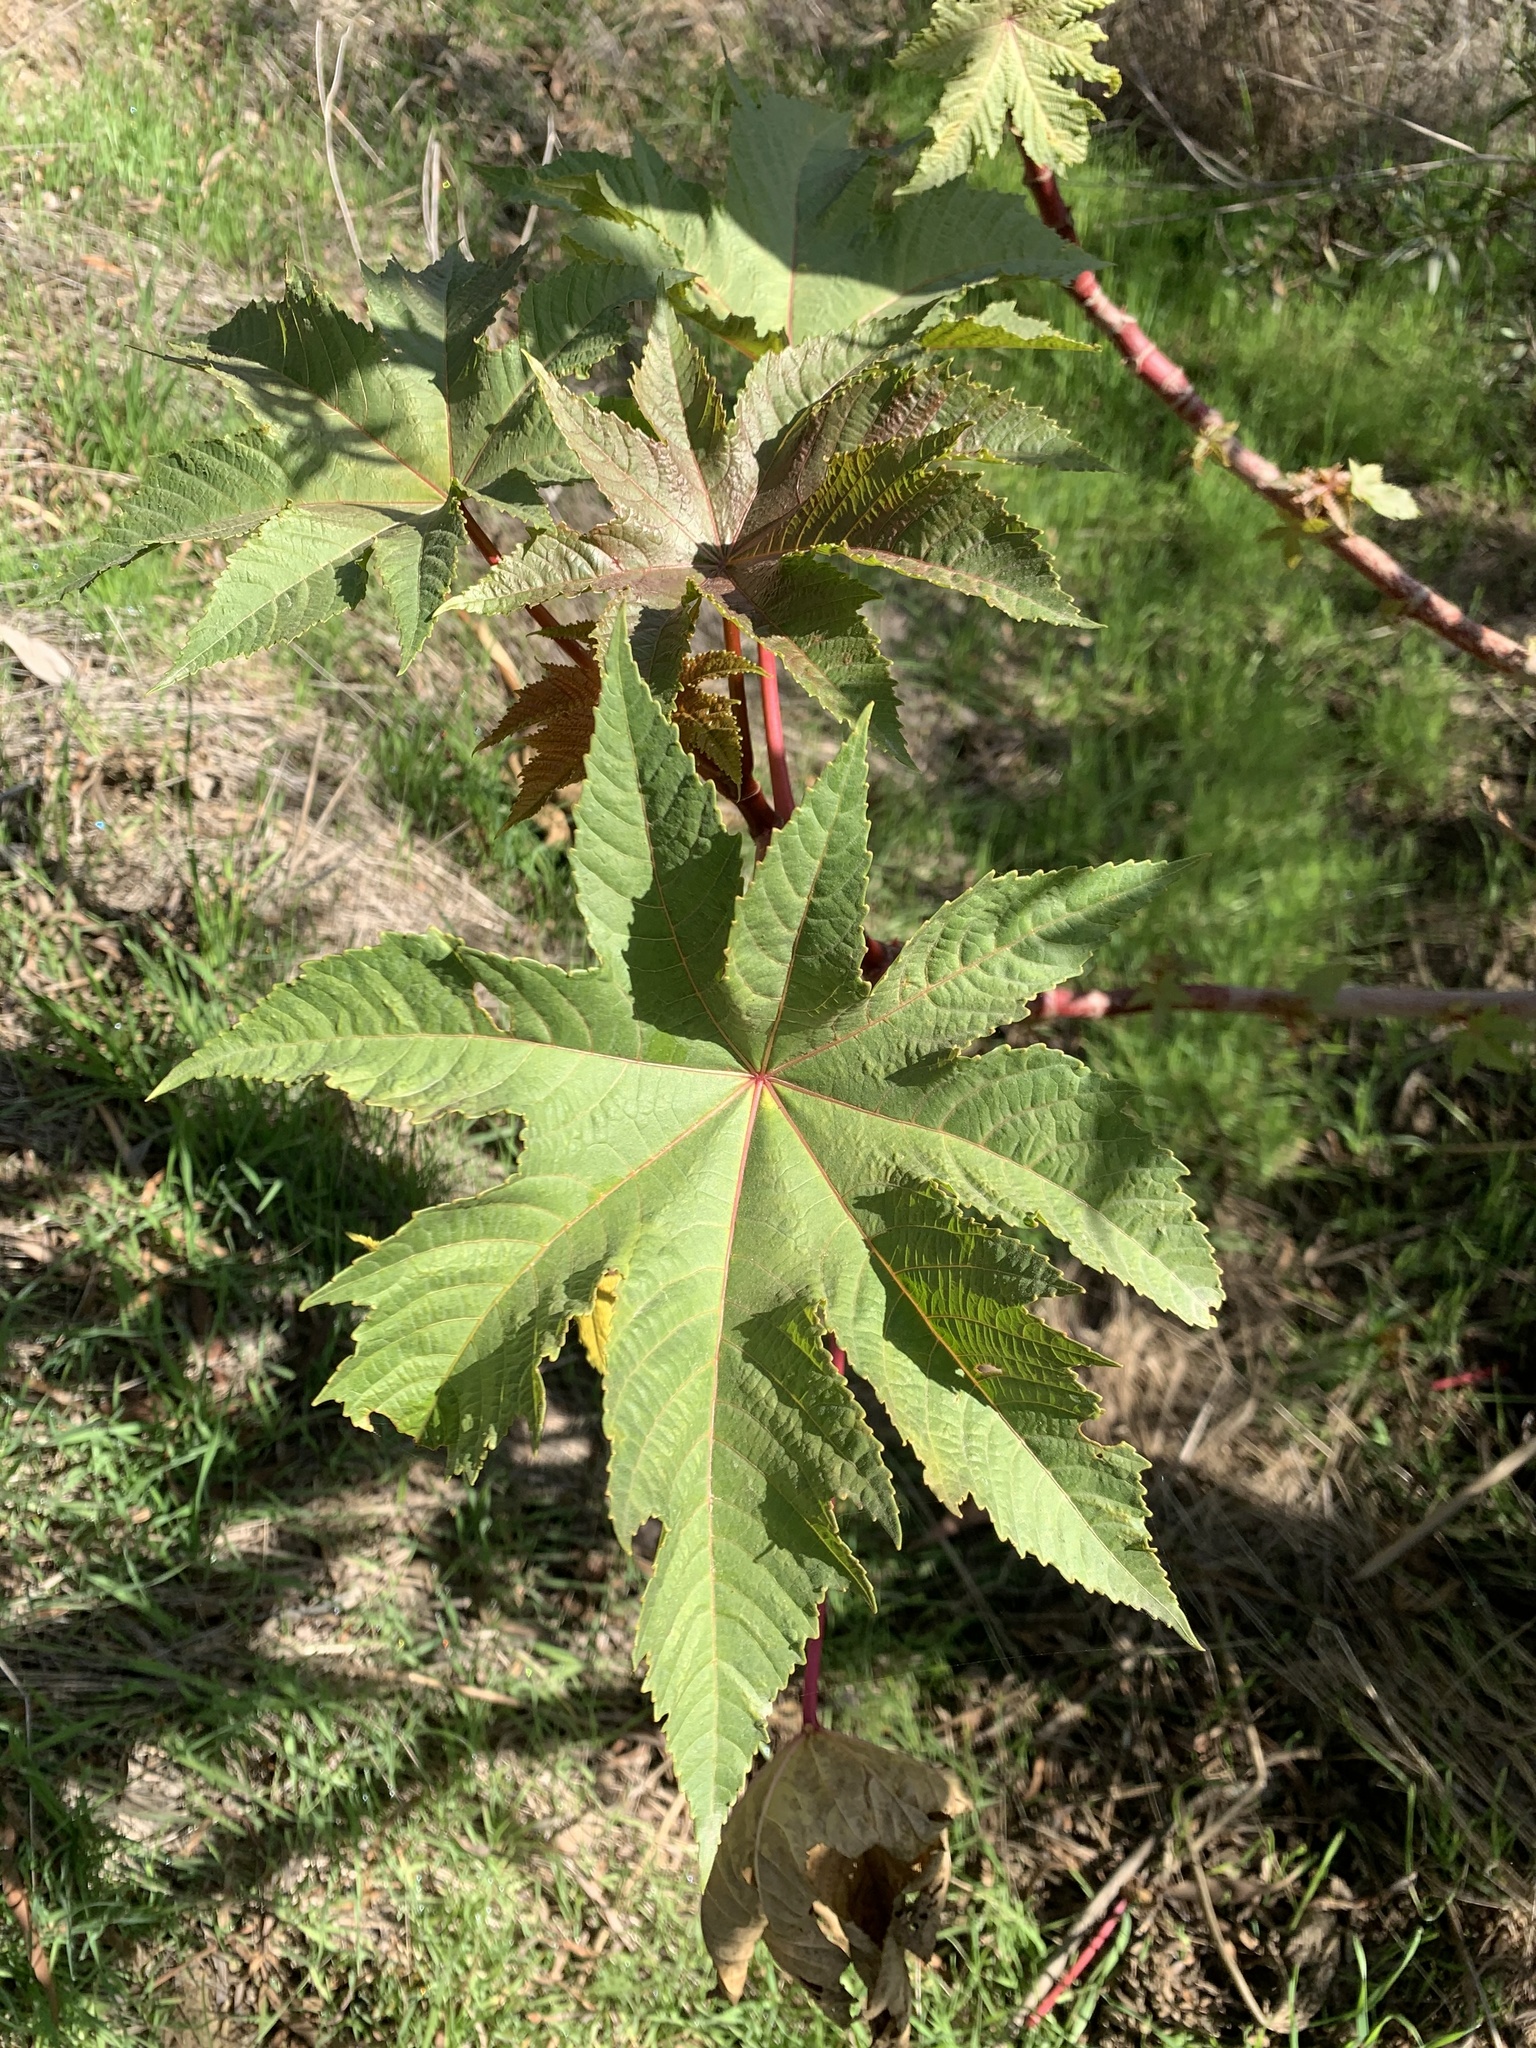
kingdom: Plantae
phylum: Tracheophyta
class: Magnoliopsida
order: Malpighiales
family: Euphorbiaceae
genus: Ricinus
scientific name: Ricinus communis
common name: Castor-oil-plant
